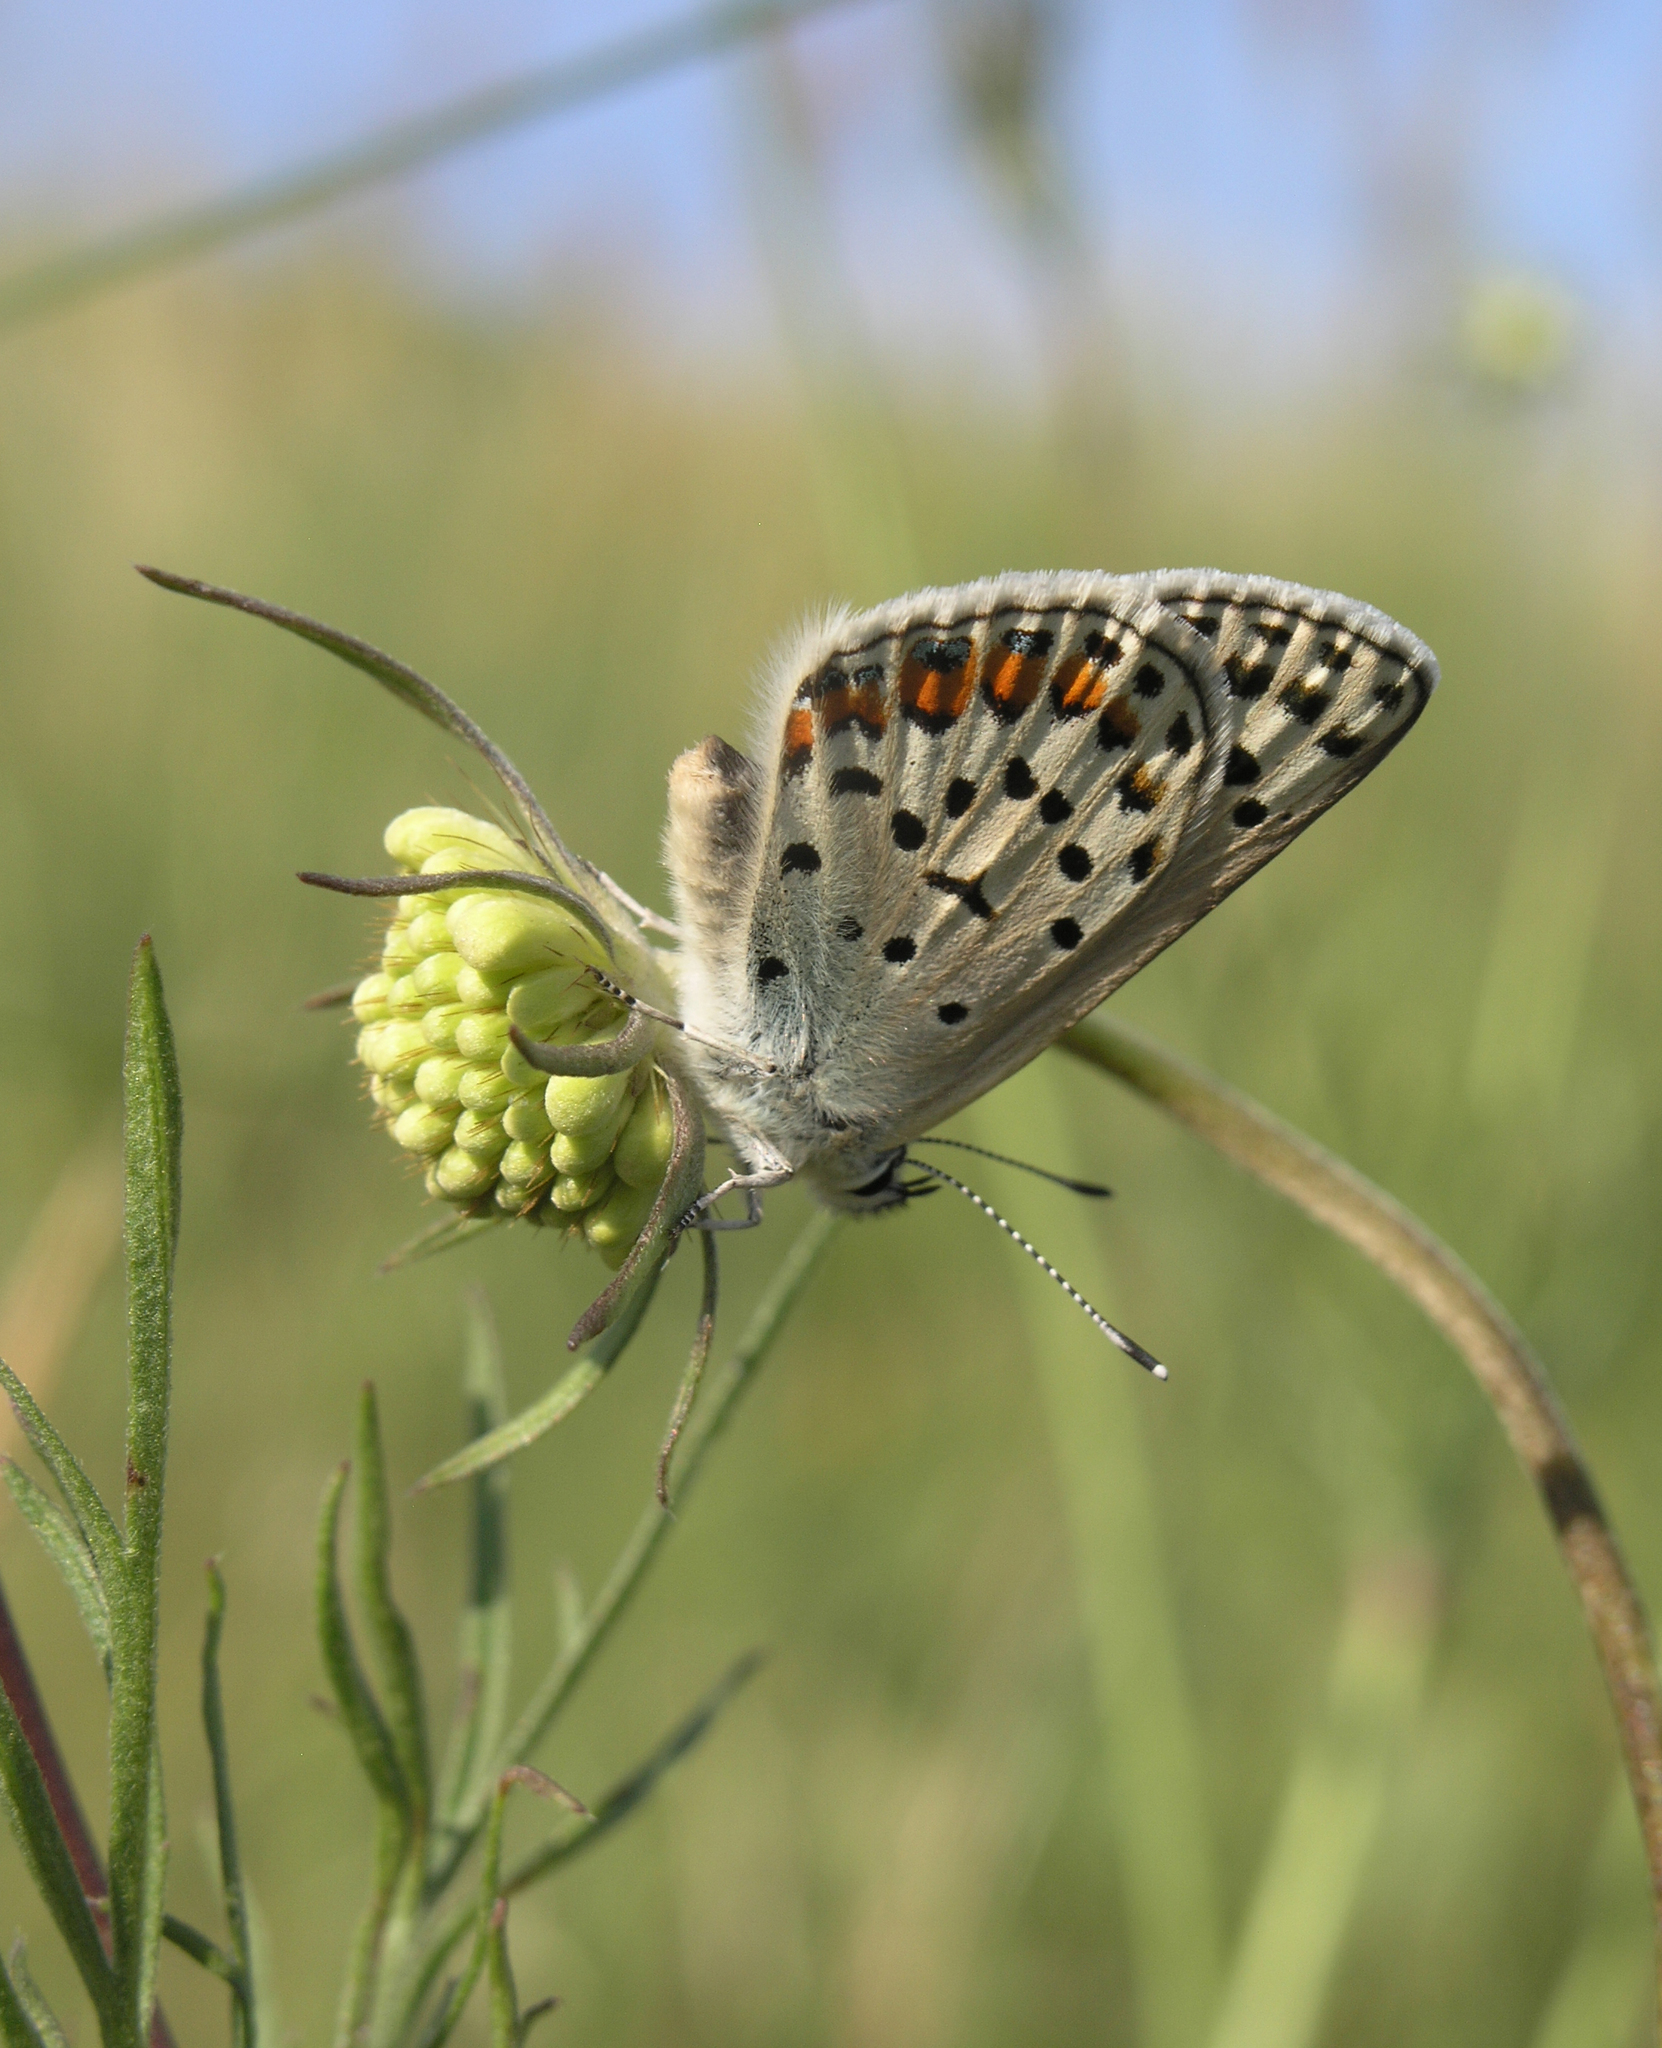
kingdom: Plantae
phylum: Tracheophyta
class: Magnoliopsida
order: Dipsacales
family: Caprifoliaceae
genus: Scabiosa
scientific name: Scabiosa ochroleuca
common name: Cream pincushions
